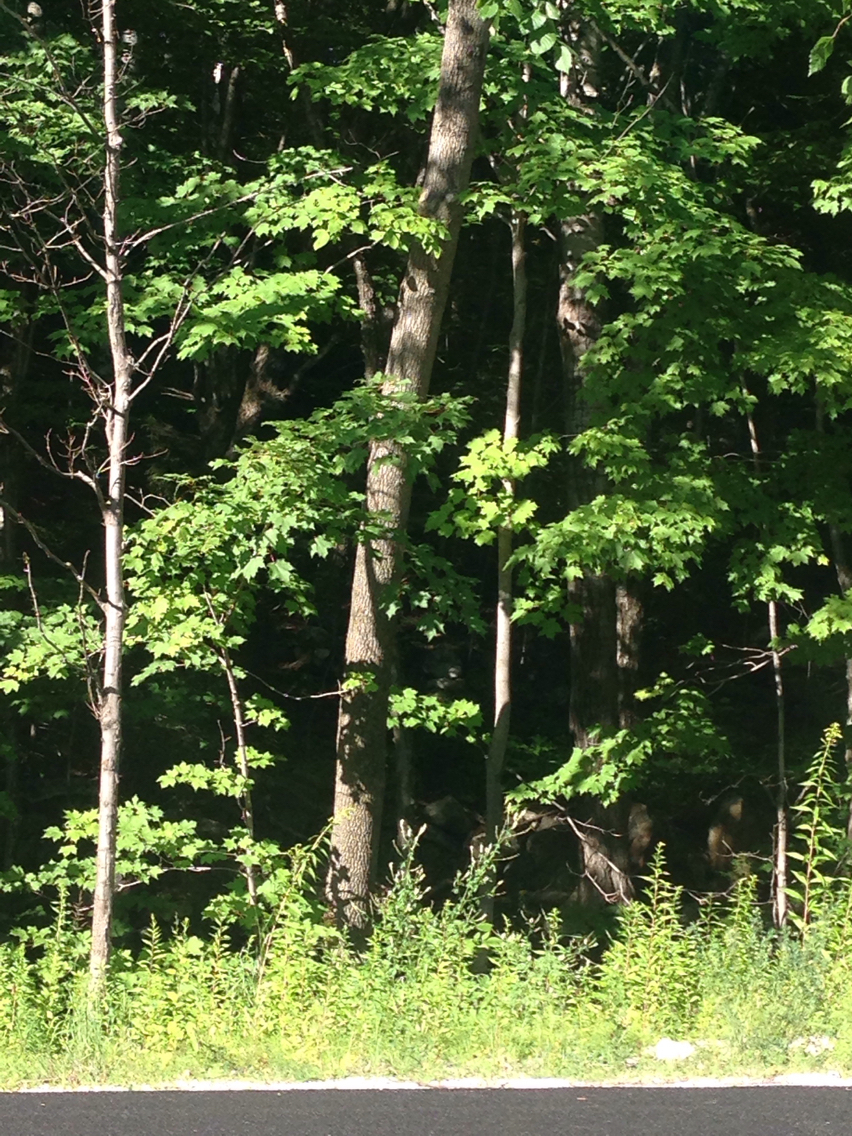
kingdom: Plantae
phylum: Tracheophyta
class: Magnoliopsida
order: Sapindales
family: Sapindaceae
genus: Acer
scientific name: Acer rubrum
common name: Red maple
